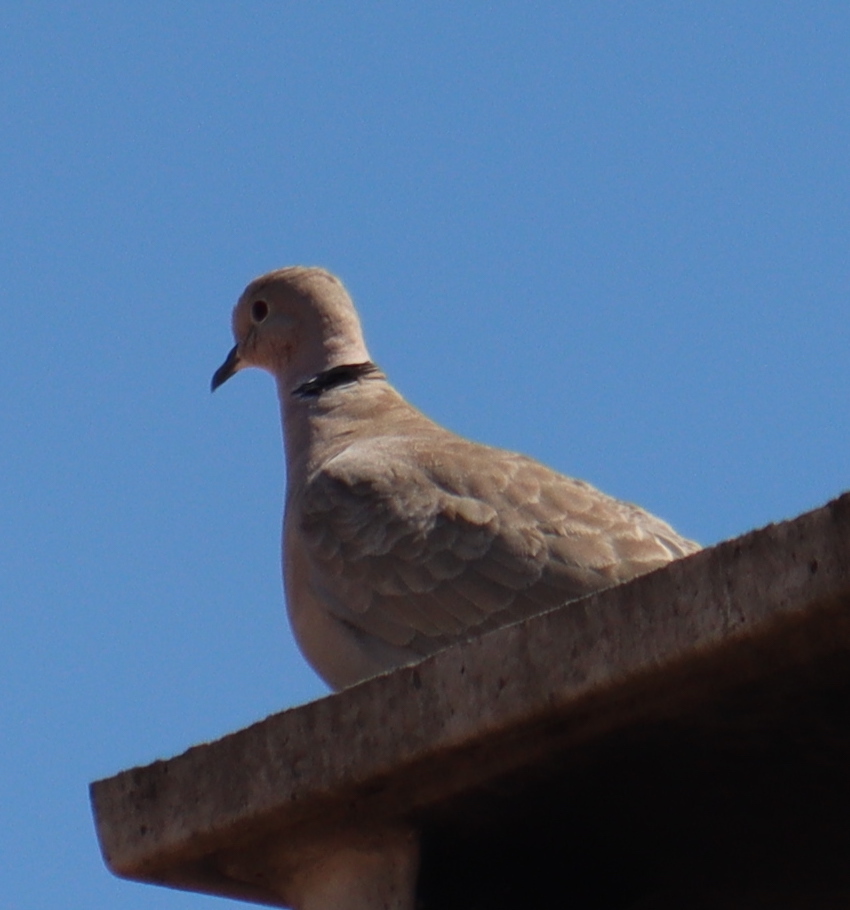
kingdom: Animalia
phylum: Chordata
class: Aves
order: Columbiformes
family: Columbidae
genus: Streptopelia
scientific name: Streptopelia decaocto
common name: Eurasian collared dove
